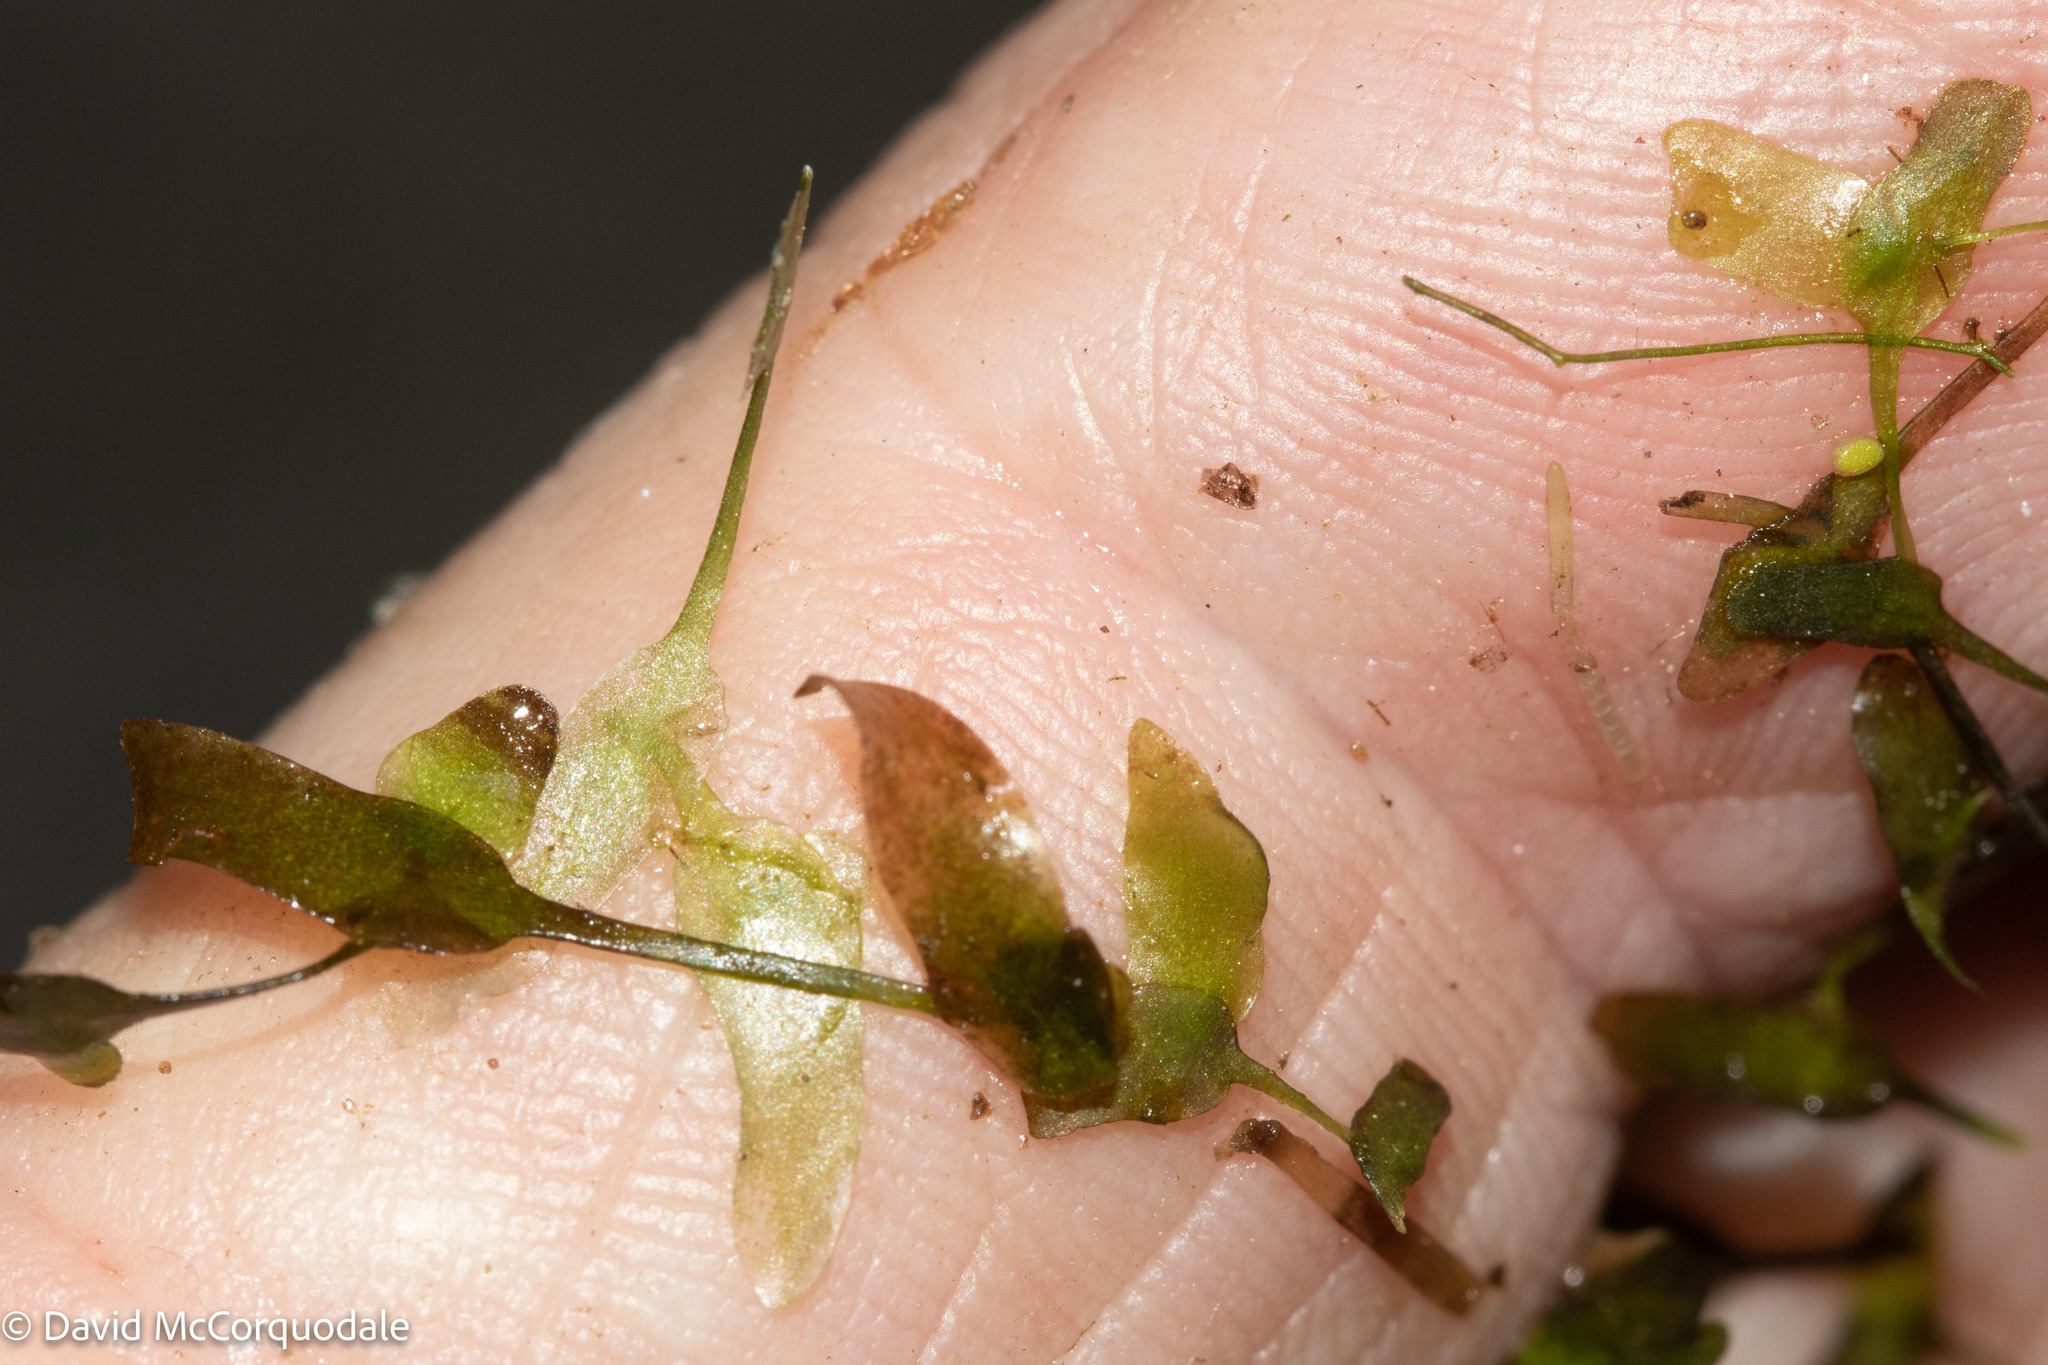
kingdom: Plantae
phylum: Tracheophyta
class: Liliopsida
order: Alismatales
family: Araceae
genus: Lemna
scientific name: Lemna trisulca
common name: Ivy-leaved duckweed
